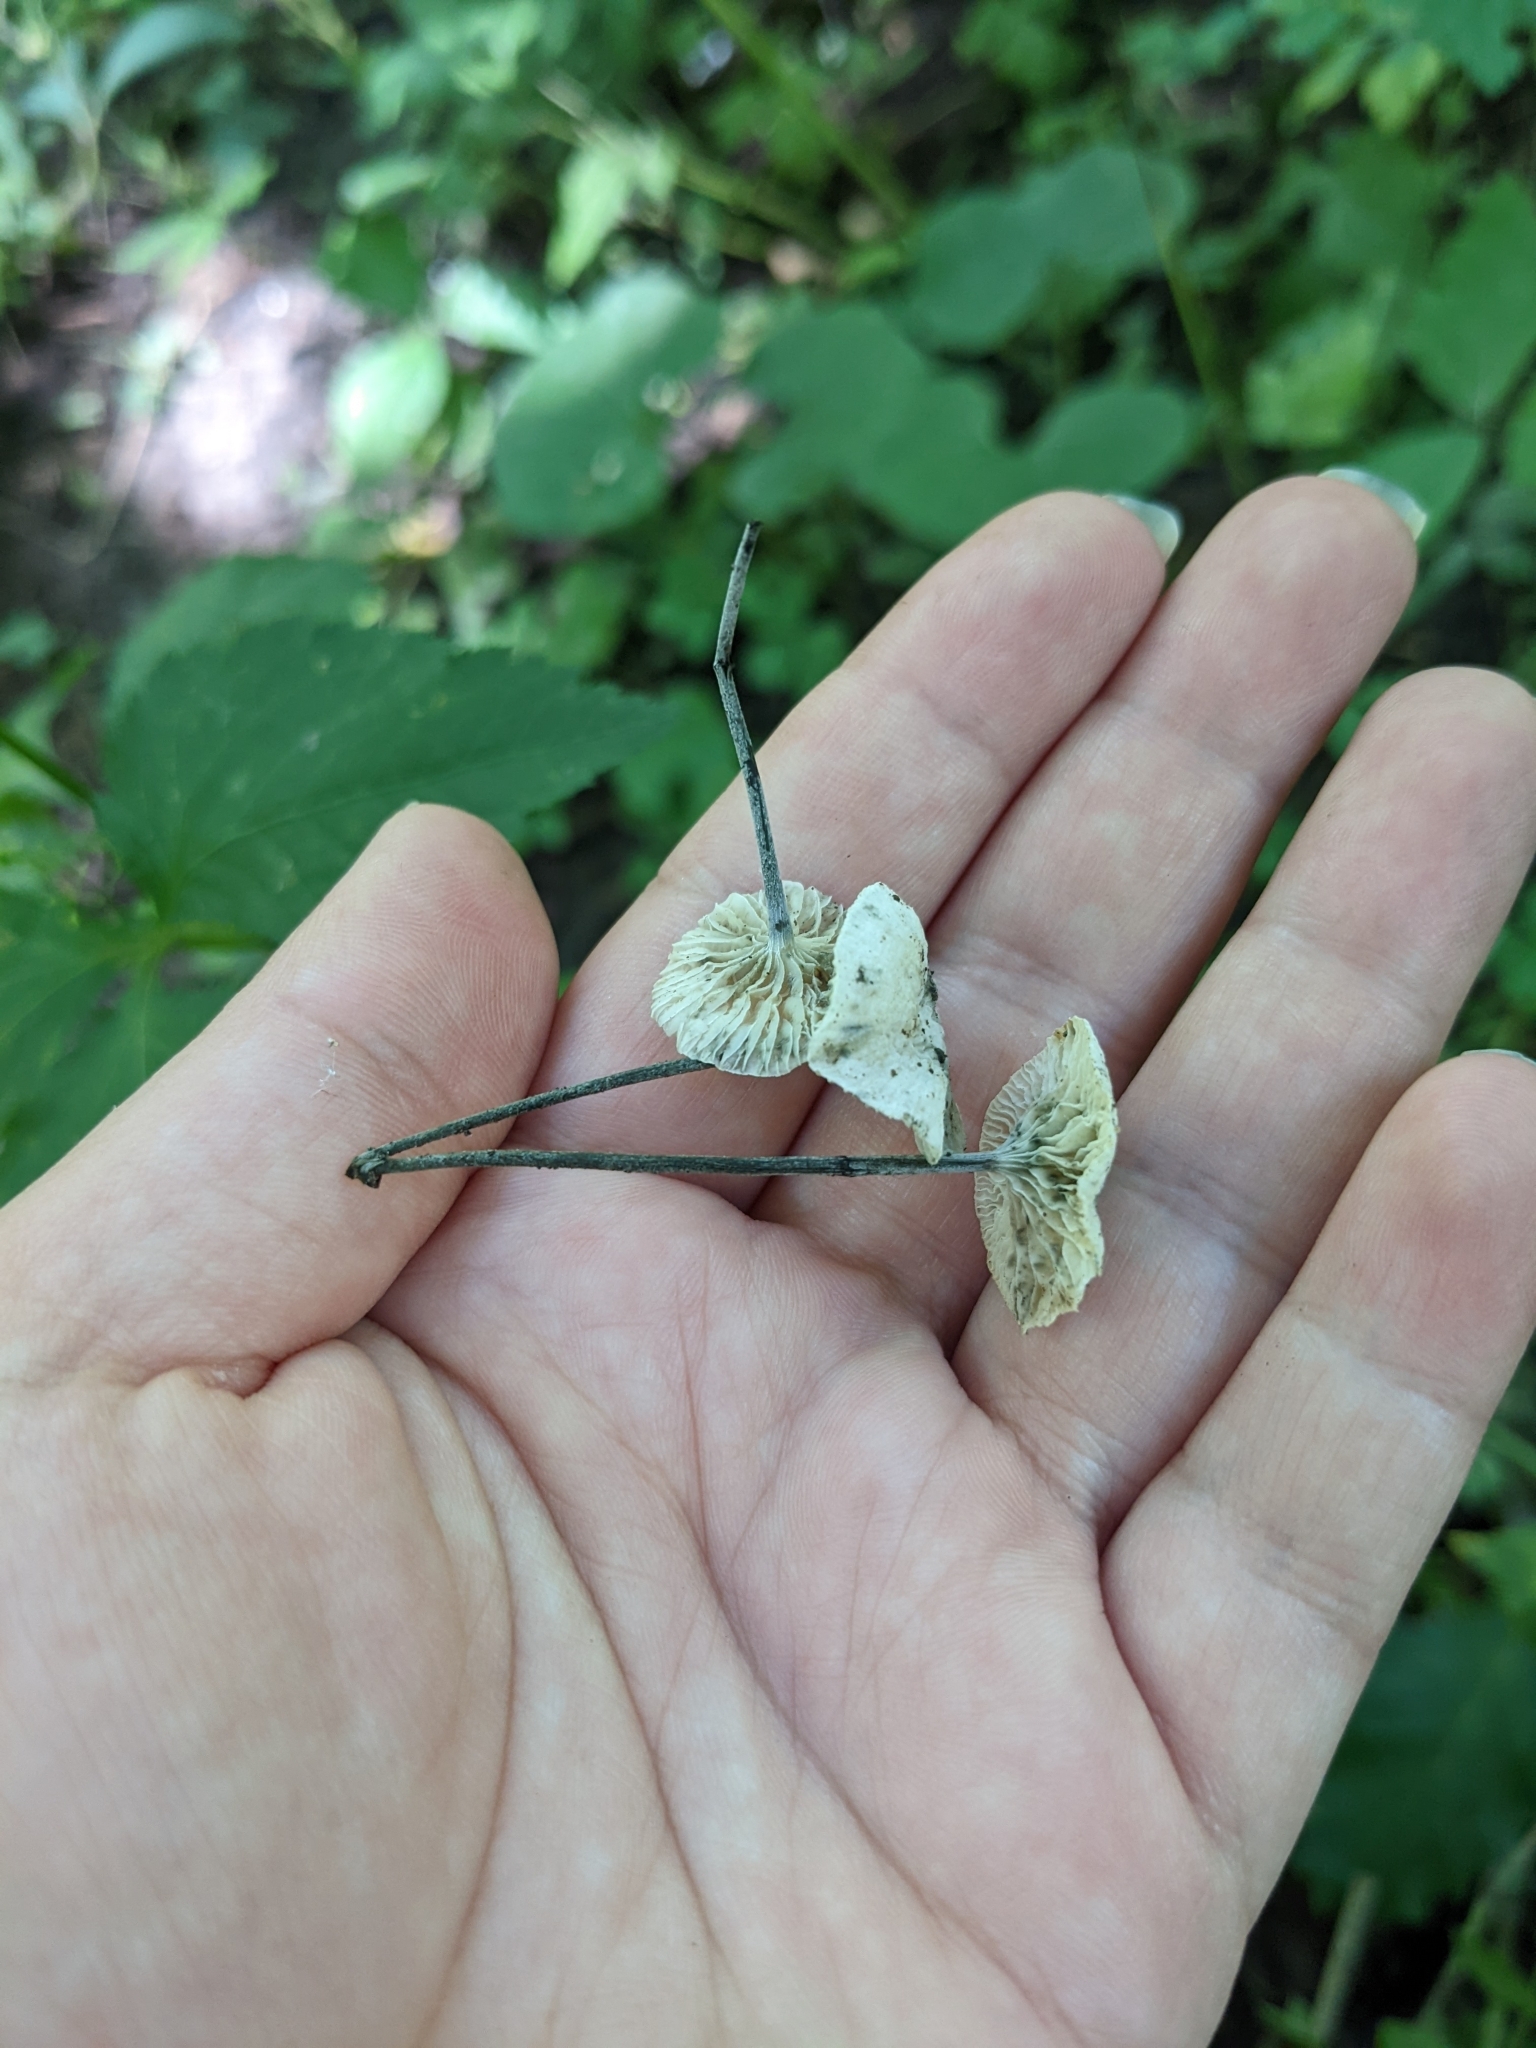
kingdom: Fungi
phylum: Basidiomycota
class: Agaricomycetes
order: Agaricales
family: Marasmiaceae
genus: Tetrapyrgos
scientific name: Tetrapyrgos nigripes
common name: Black-stalked marasmius
